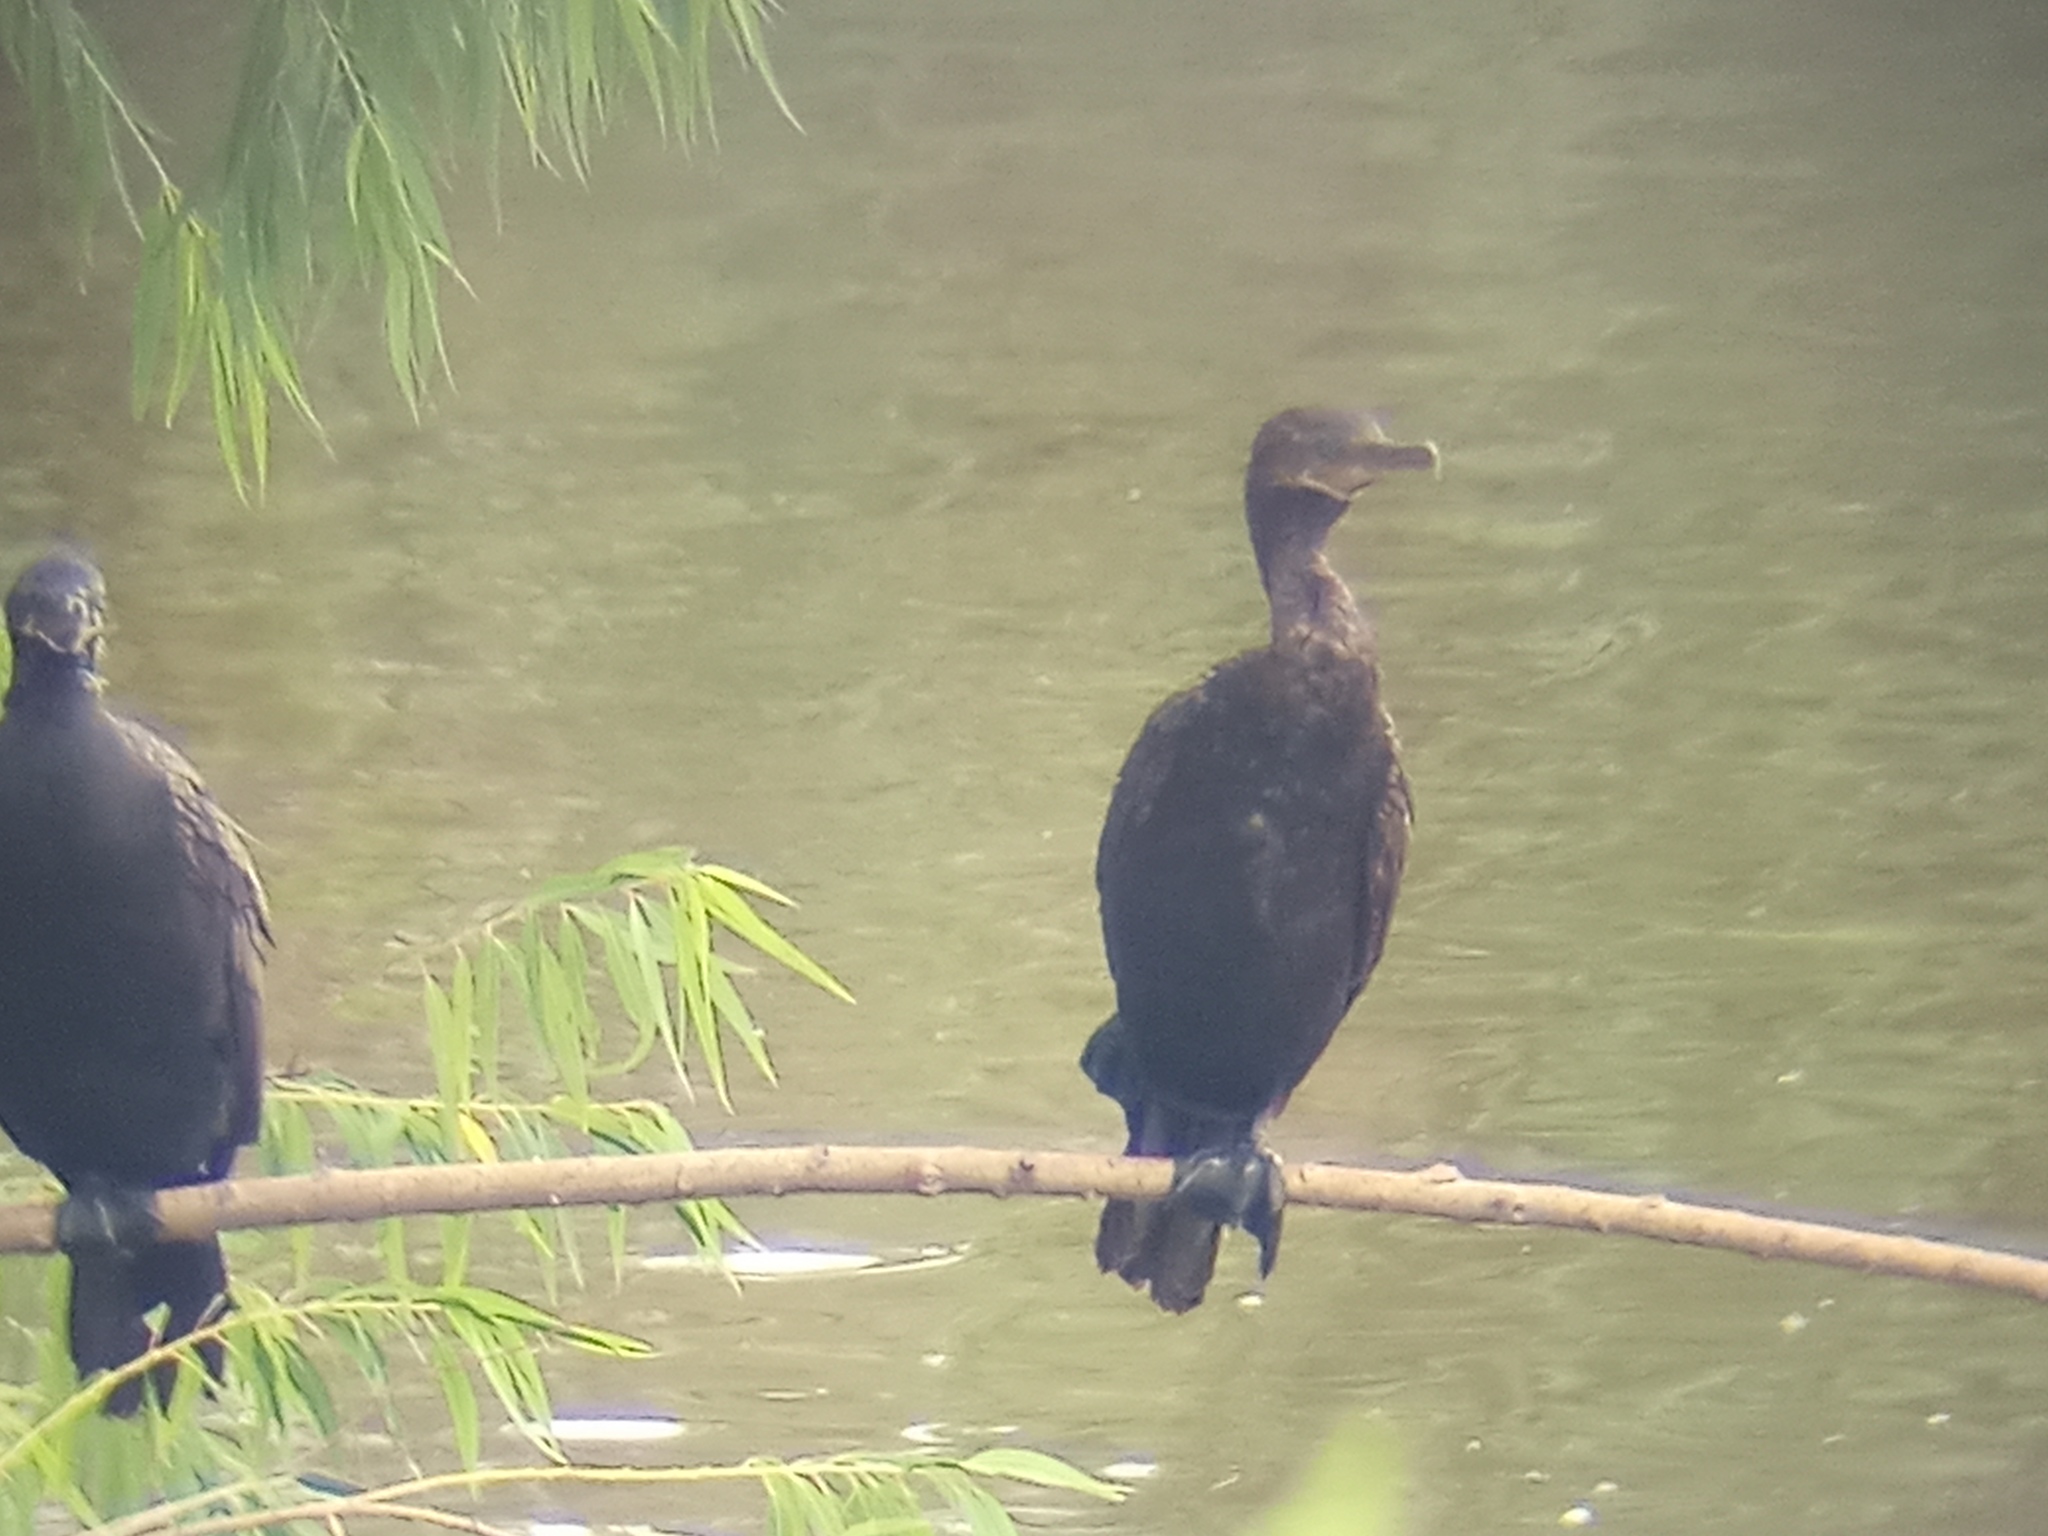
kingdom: Animalia
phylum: Chordata
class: Aves
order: Suliformes
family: Phalacrocoracidae
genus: Phalacrocorax
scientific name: Phalacrocorax brasilianus
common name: Neotropic cormorant
